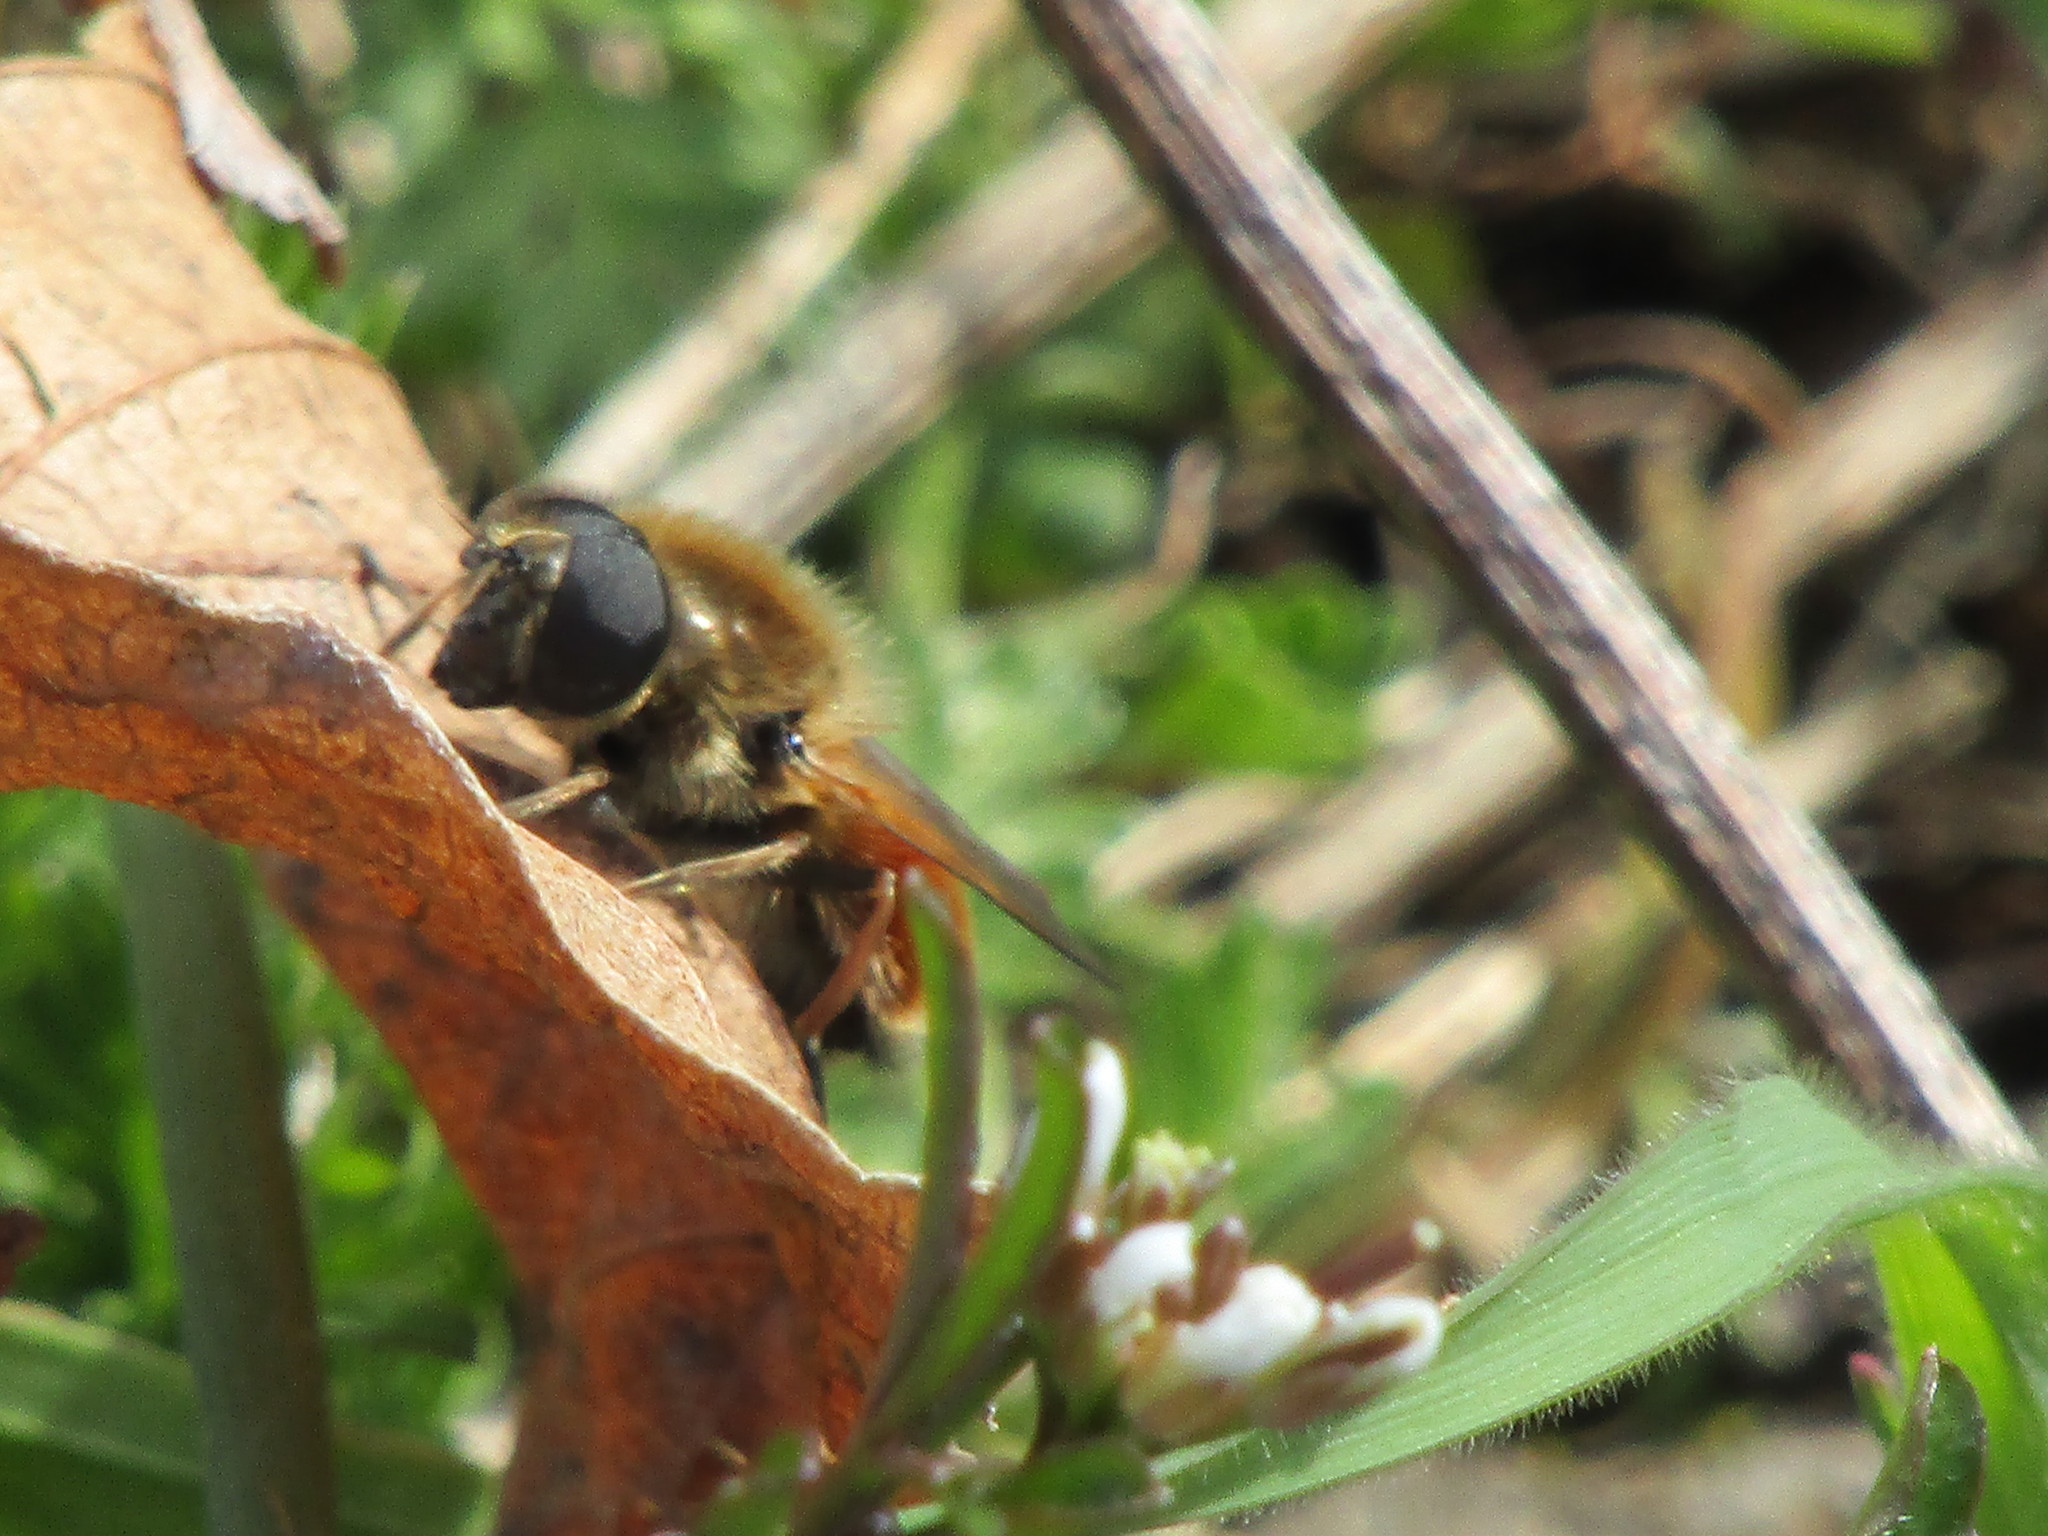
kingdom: Animalia
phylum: Arthropoda
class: Insecta
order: Diptera
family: Syrphidae
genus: Cheilosia
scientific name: Cheilosia corydon
